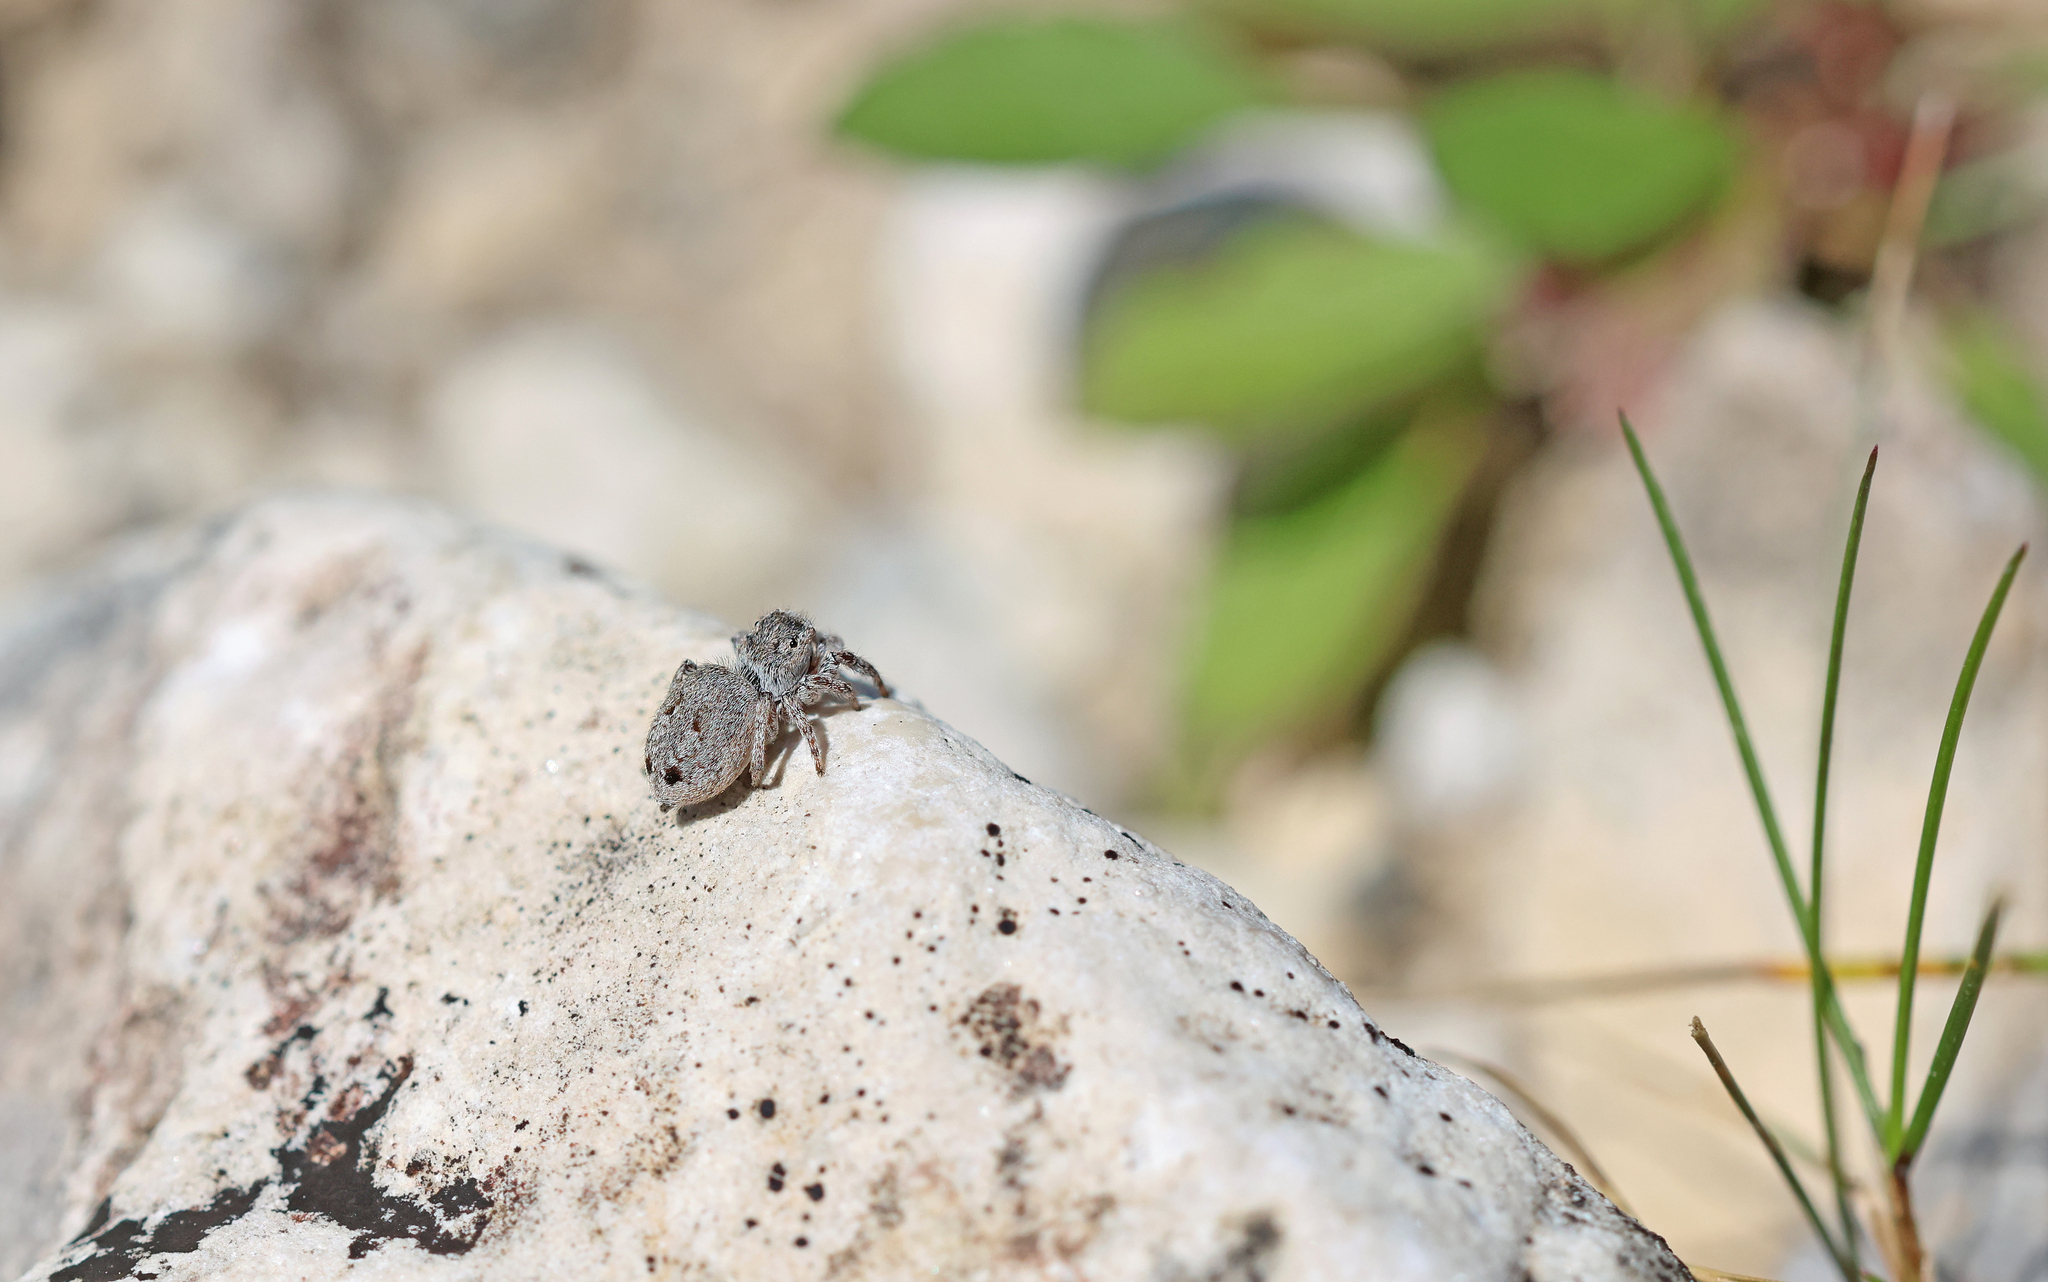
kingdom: Animalia
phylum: Arthropoda
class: Arachnida
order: Araneae
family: Salticidae
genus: Attulus
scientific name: Attulus atricapillus
